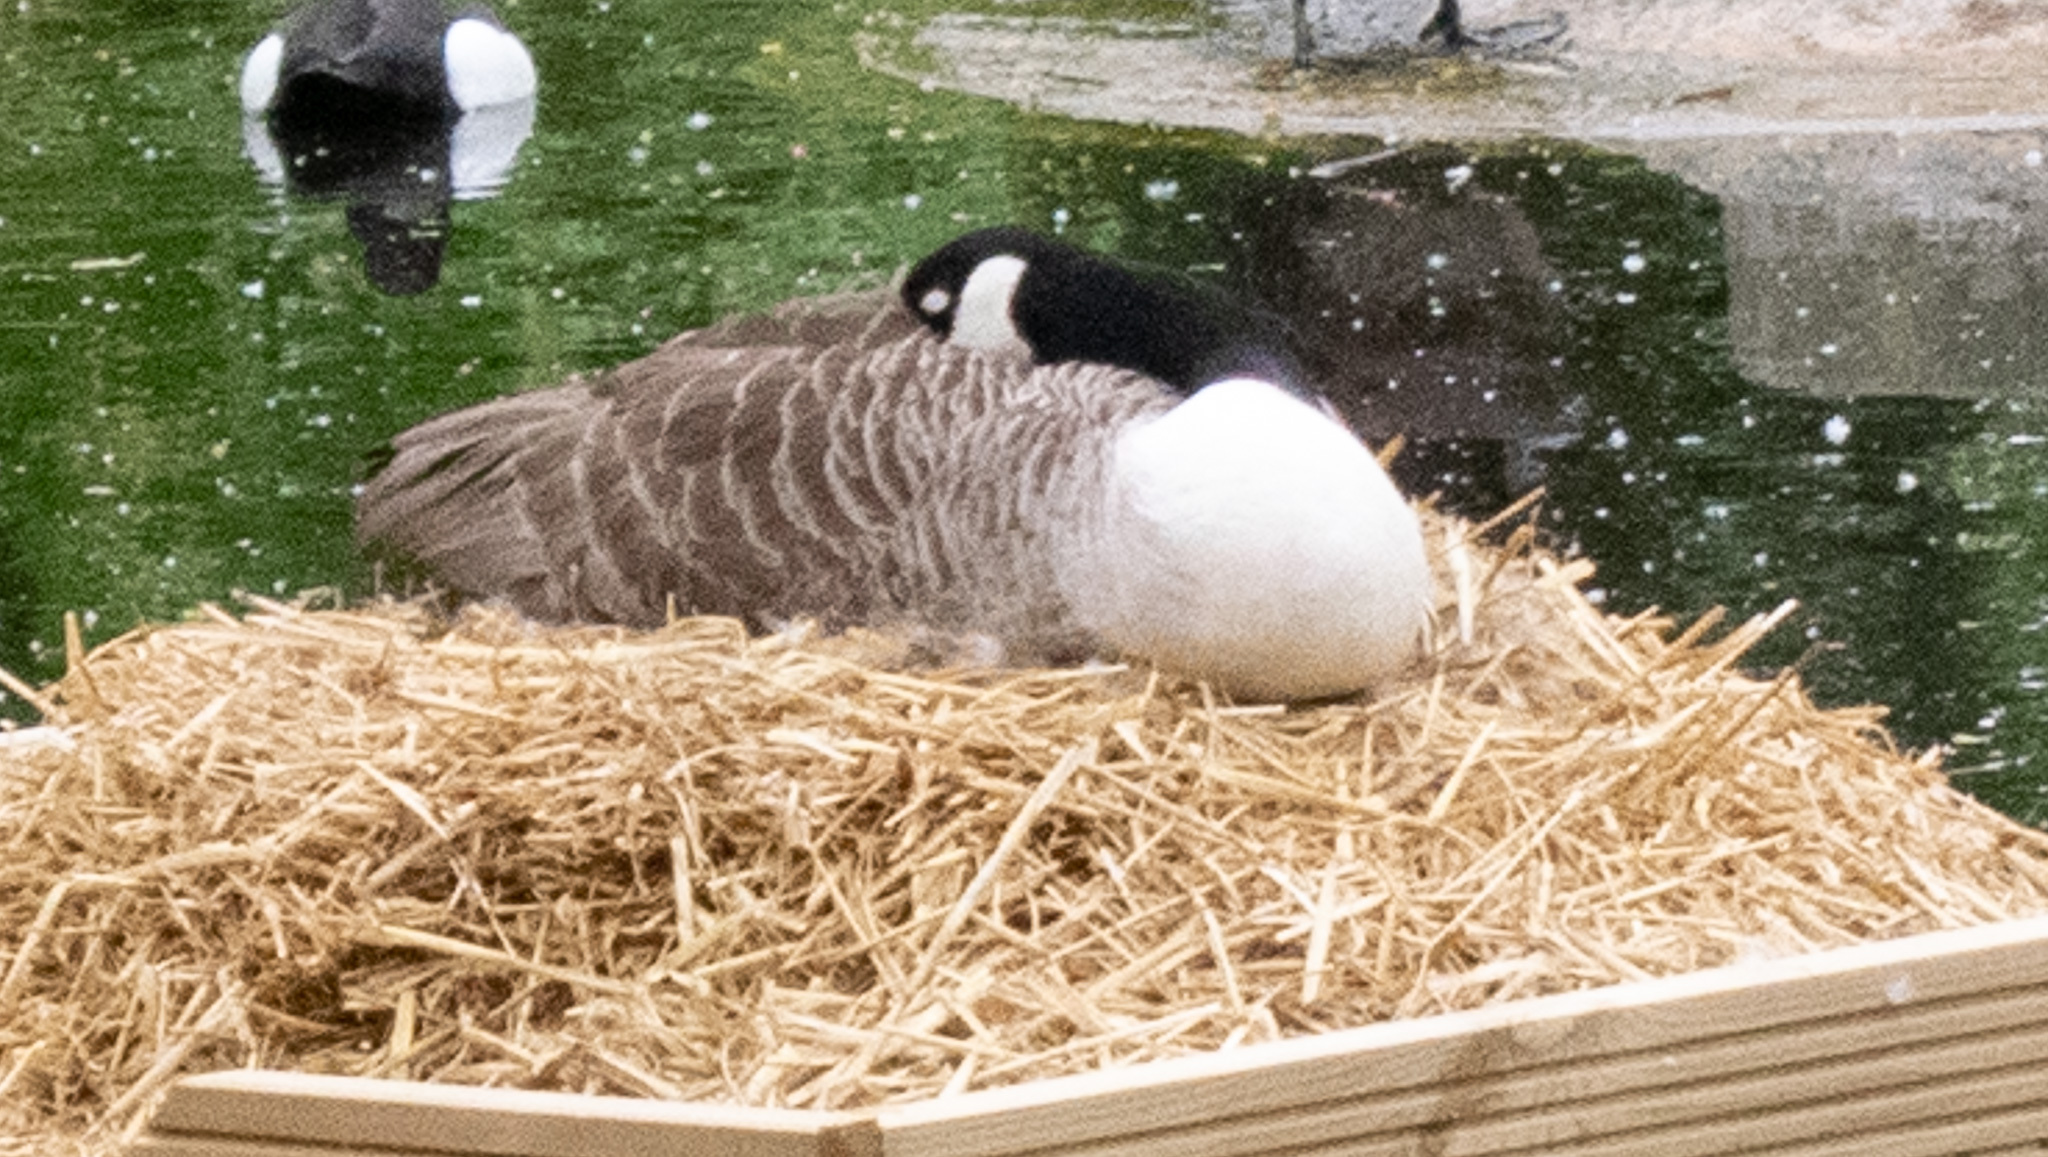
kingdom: Animalia
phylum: Chordata
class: Aves
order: Anseriformes
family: Anatidae
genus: Branta
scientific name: Branta canadensis
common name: Canada goose
